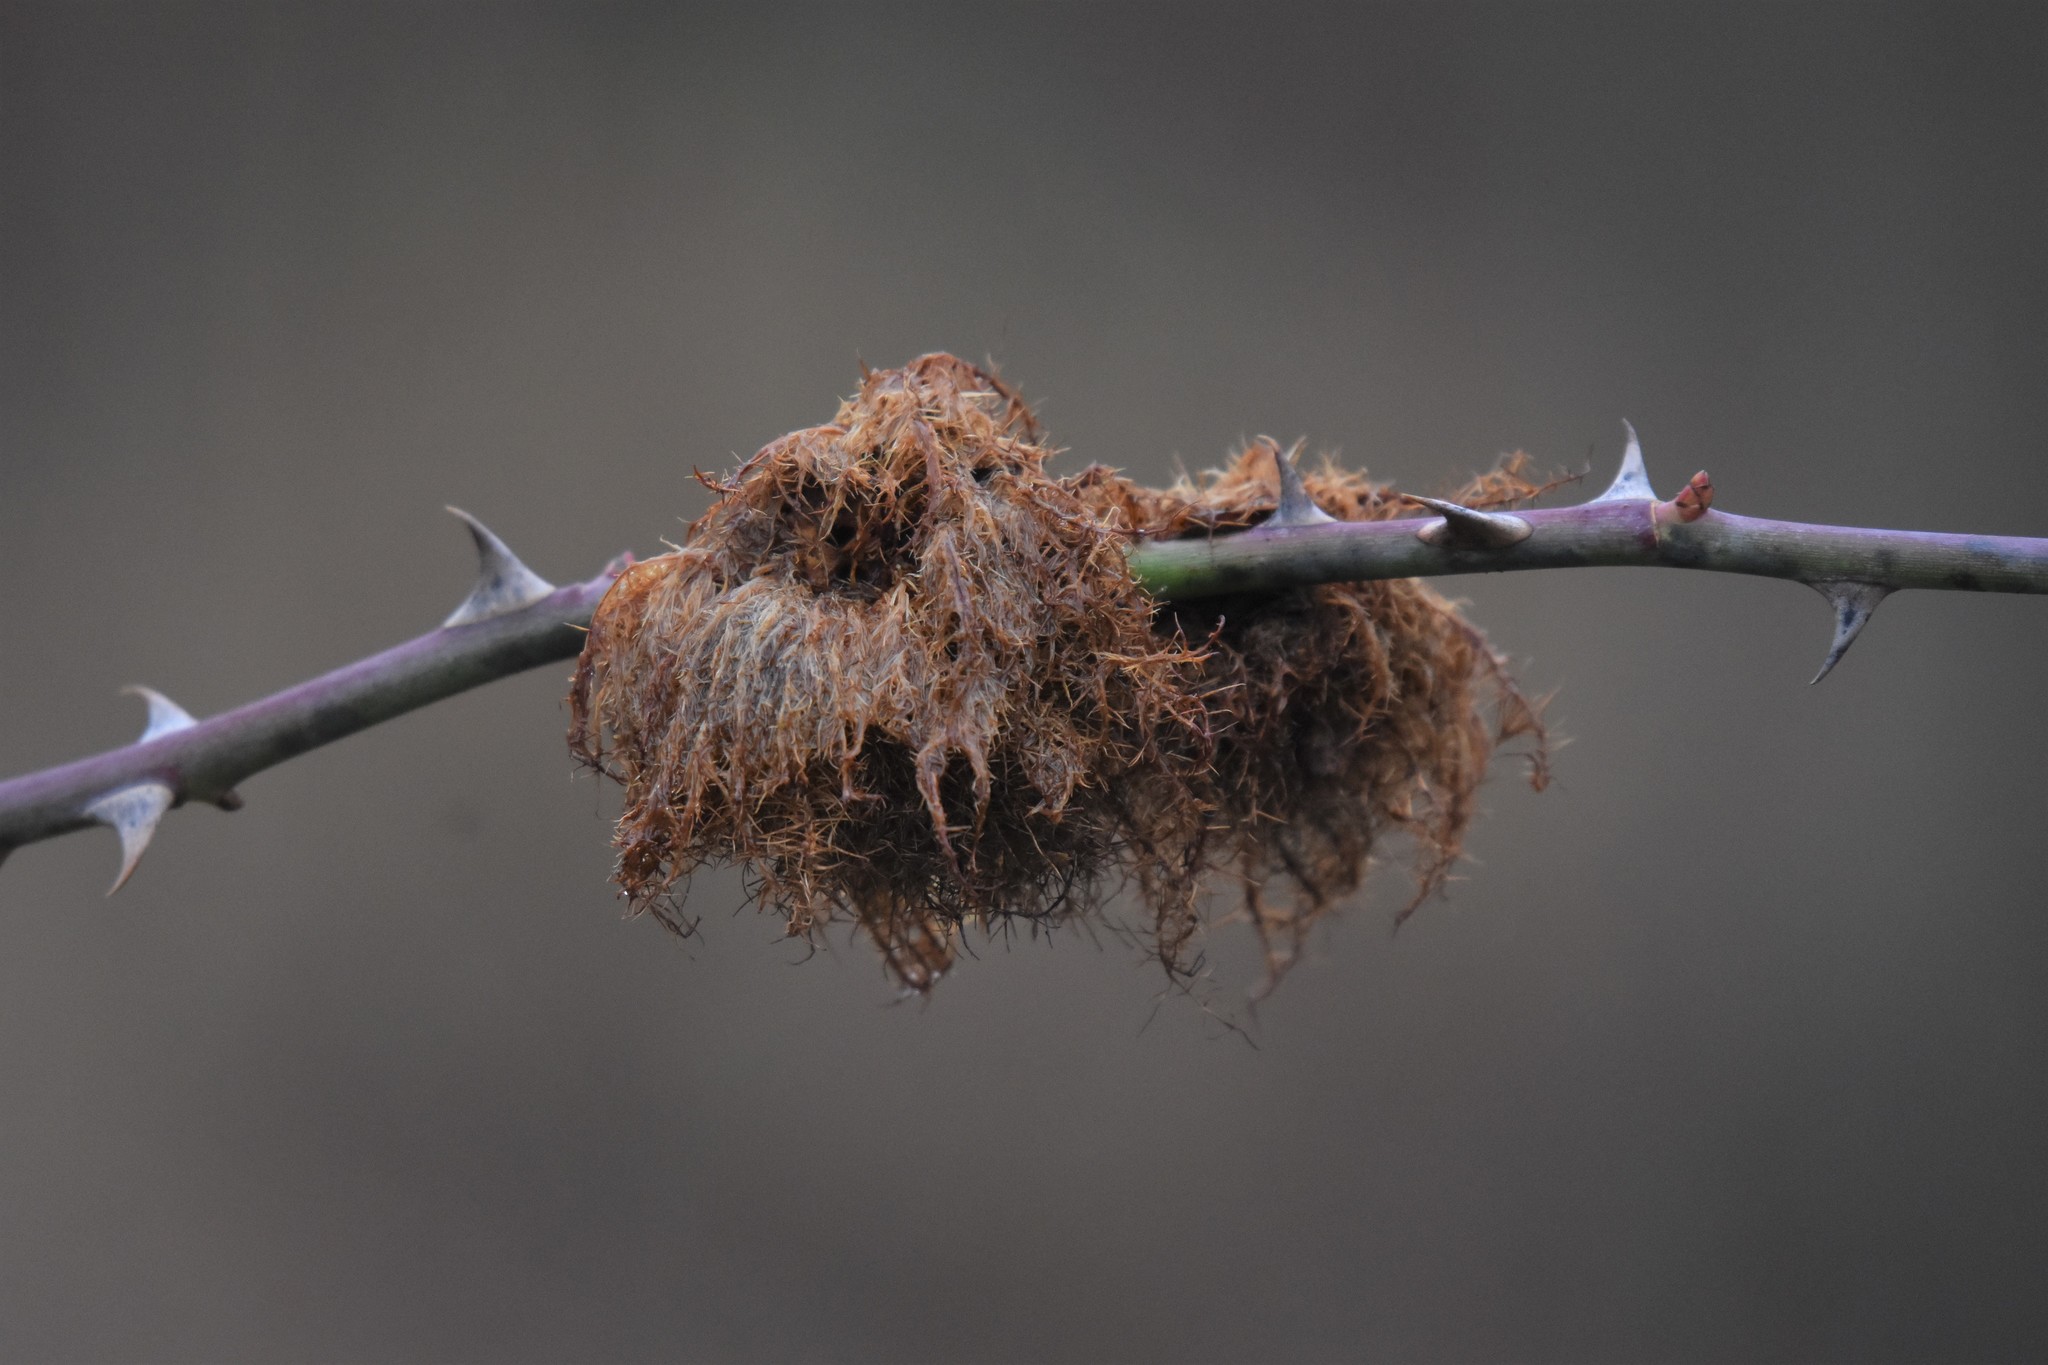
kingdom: Animalia
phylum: Arthropoda
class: Insecta
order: Hymenoptera
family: Cynipidae
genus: Diplolepis
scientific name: Diplolepis rosae
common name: Bedeguar gall
